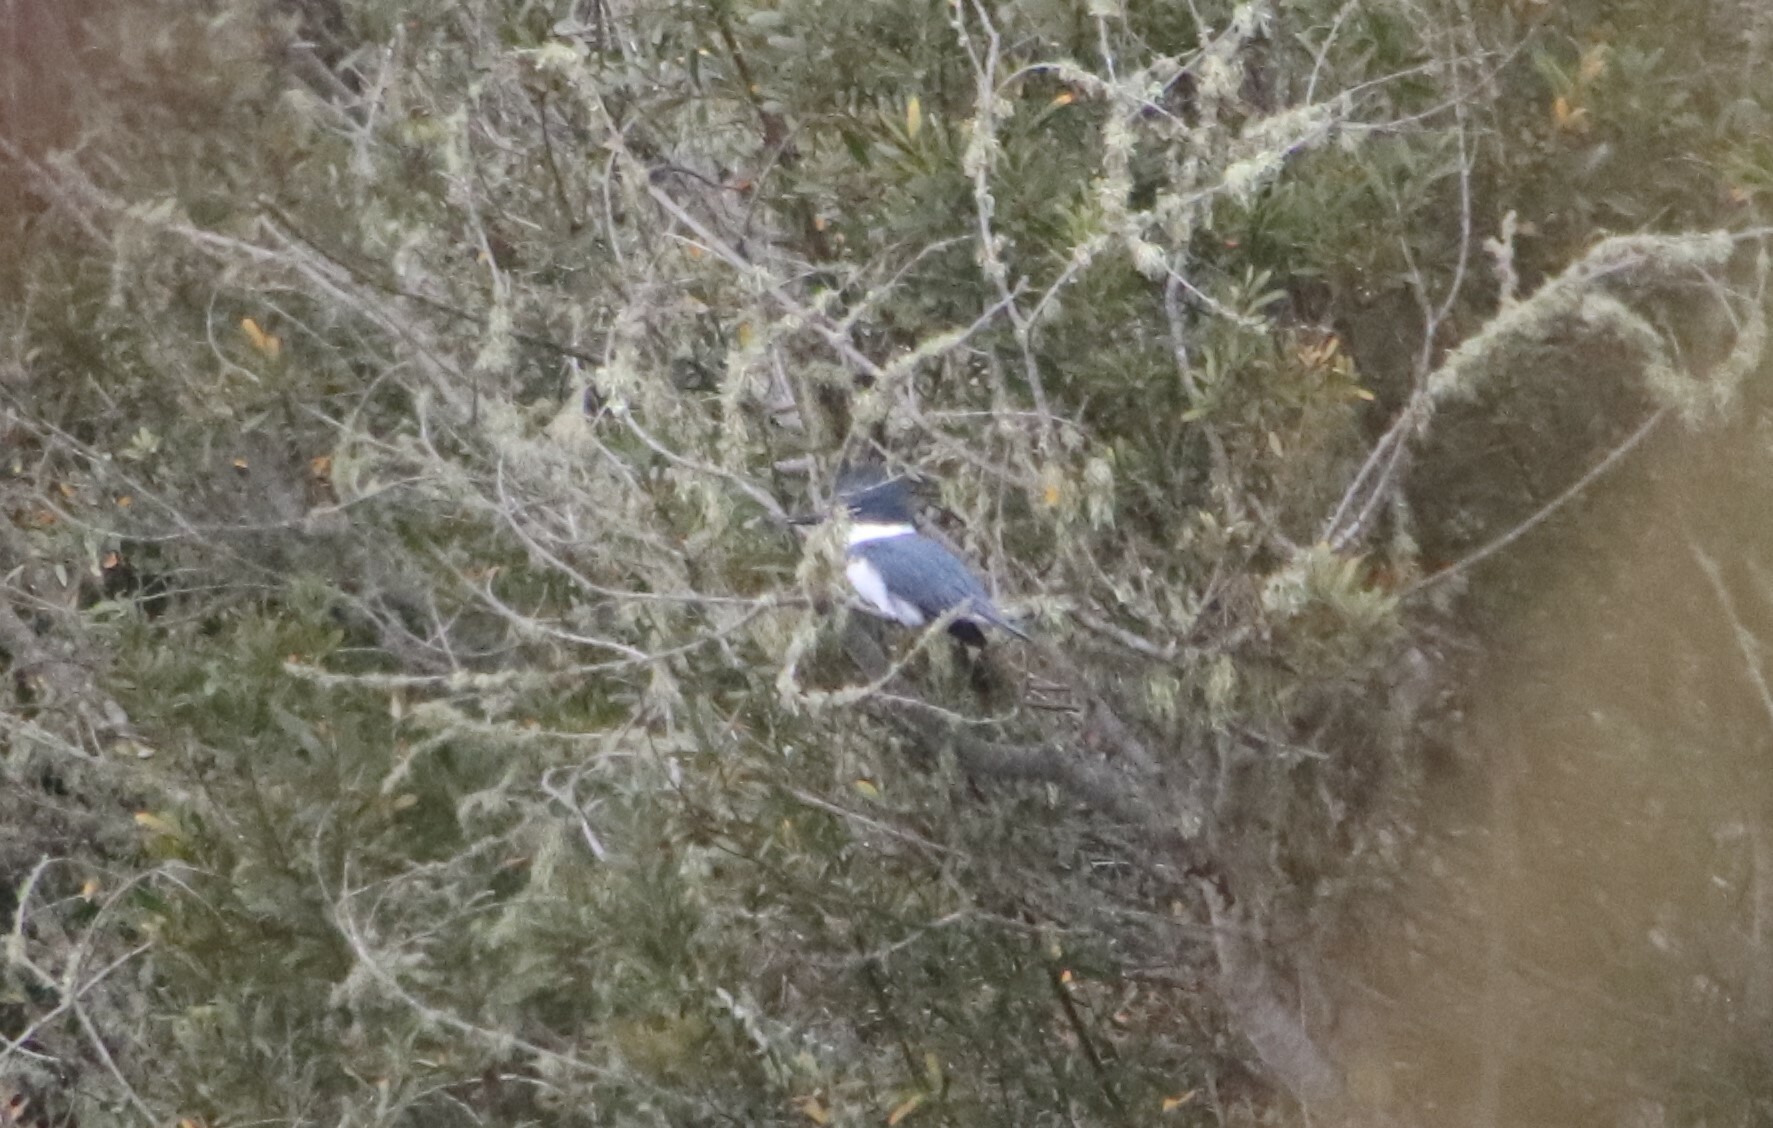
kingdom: Animalia
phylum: Chordata
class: Aves
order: Coraciiformes
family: Alcedinidae
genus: Megaceryle
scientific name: Megaceryle alcyon
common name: Belted kingfisher
